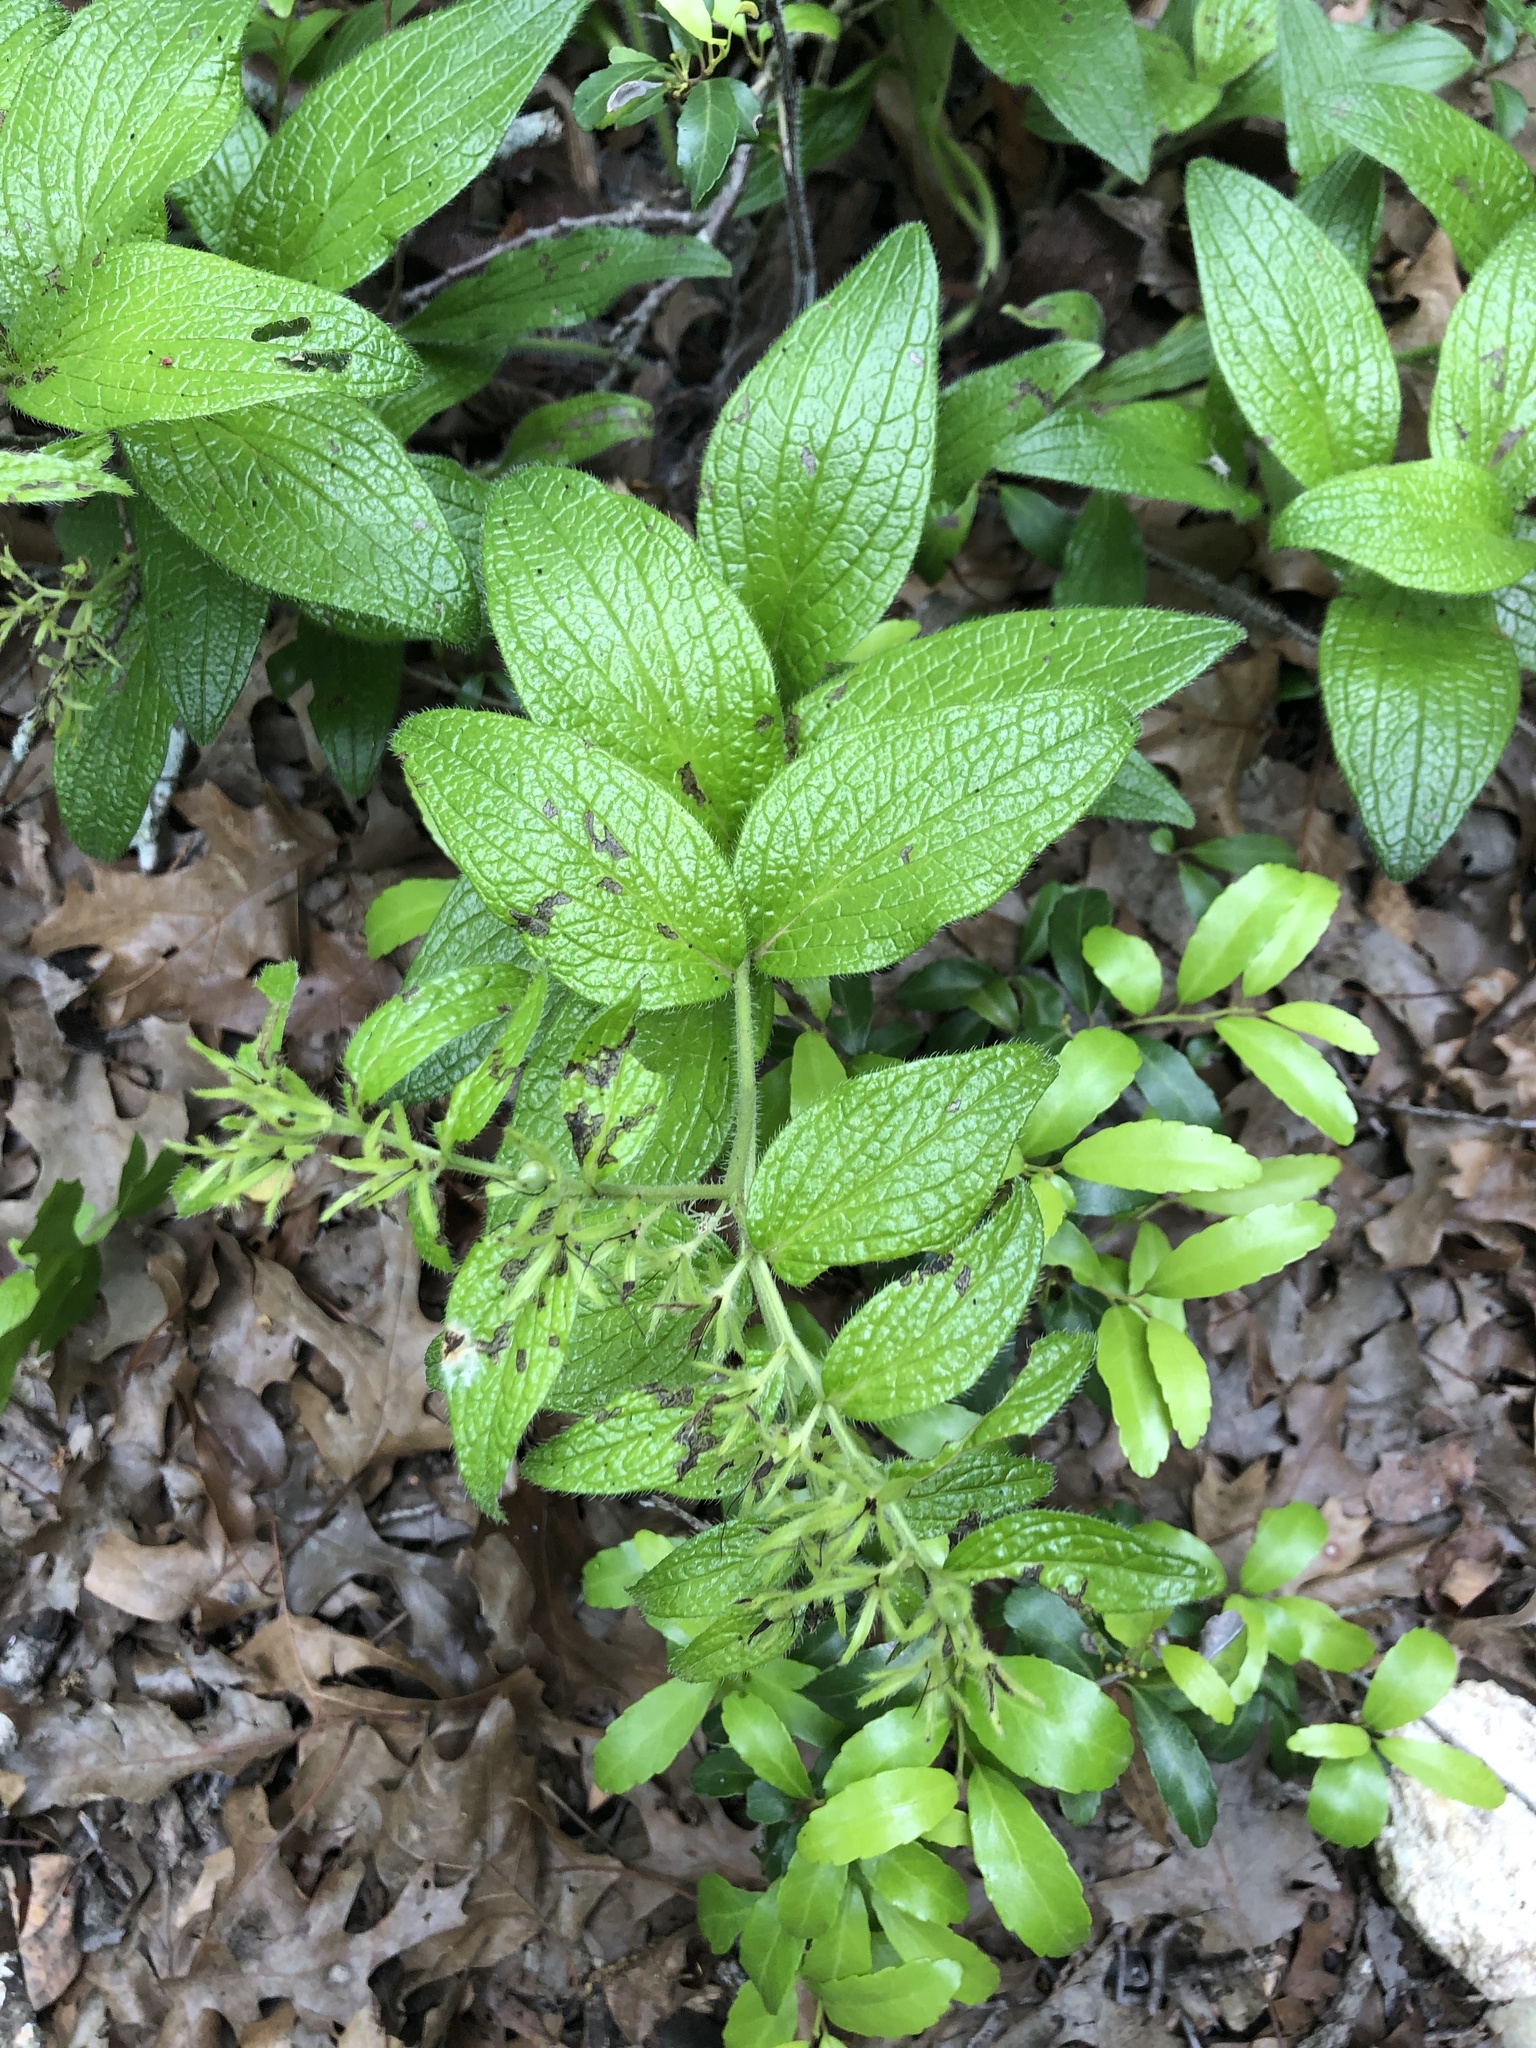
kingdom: Plantae
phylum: Tracheophyta
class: Magnoliopsida
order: Boraginales
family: Boraginaceae
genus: Lithospermum
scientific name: Lithospermum helleri
